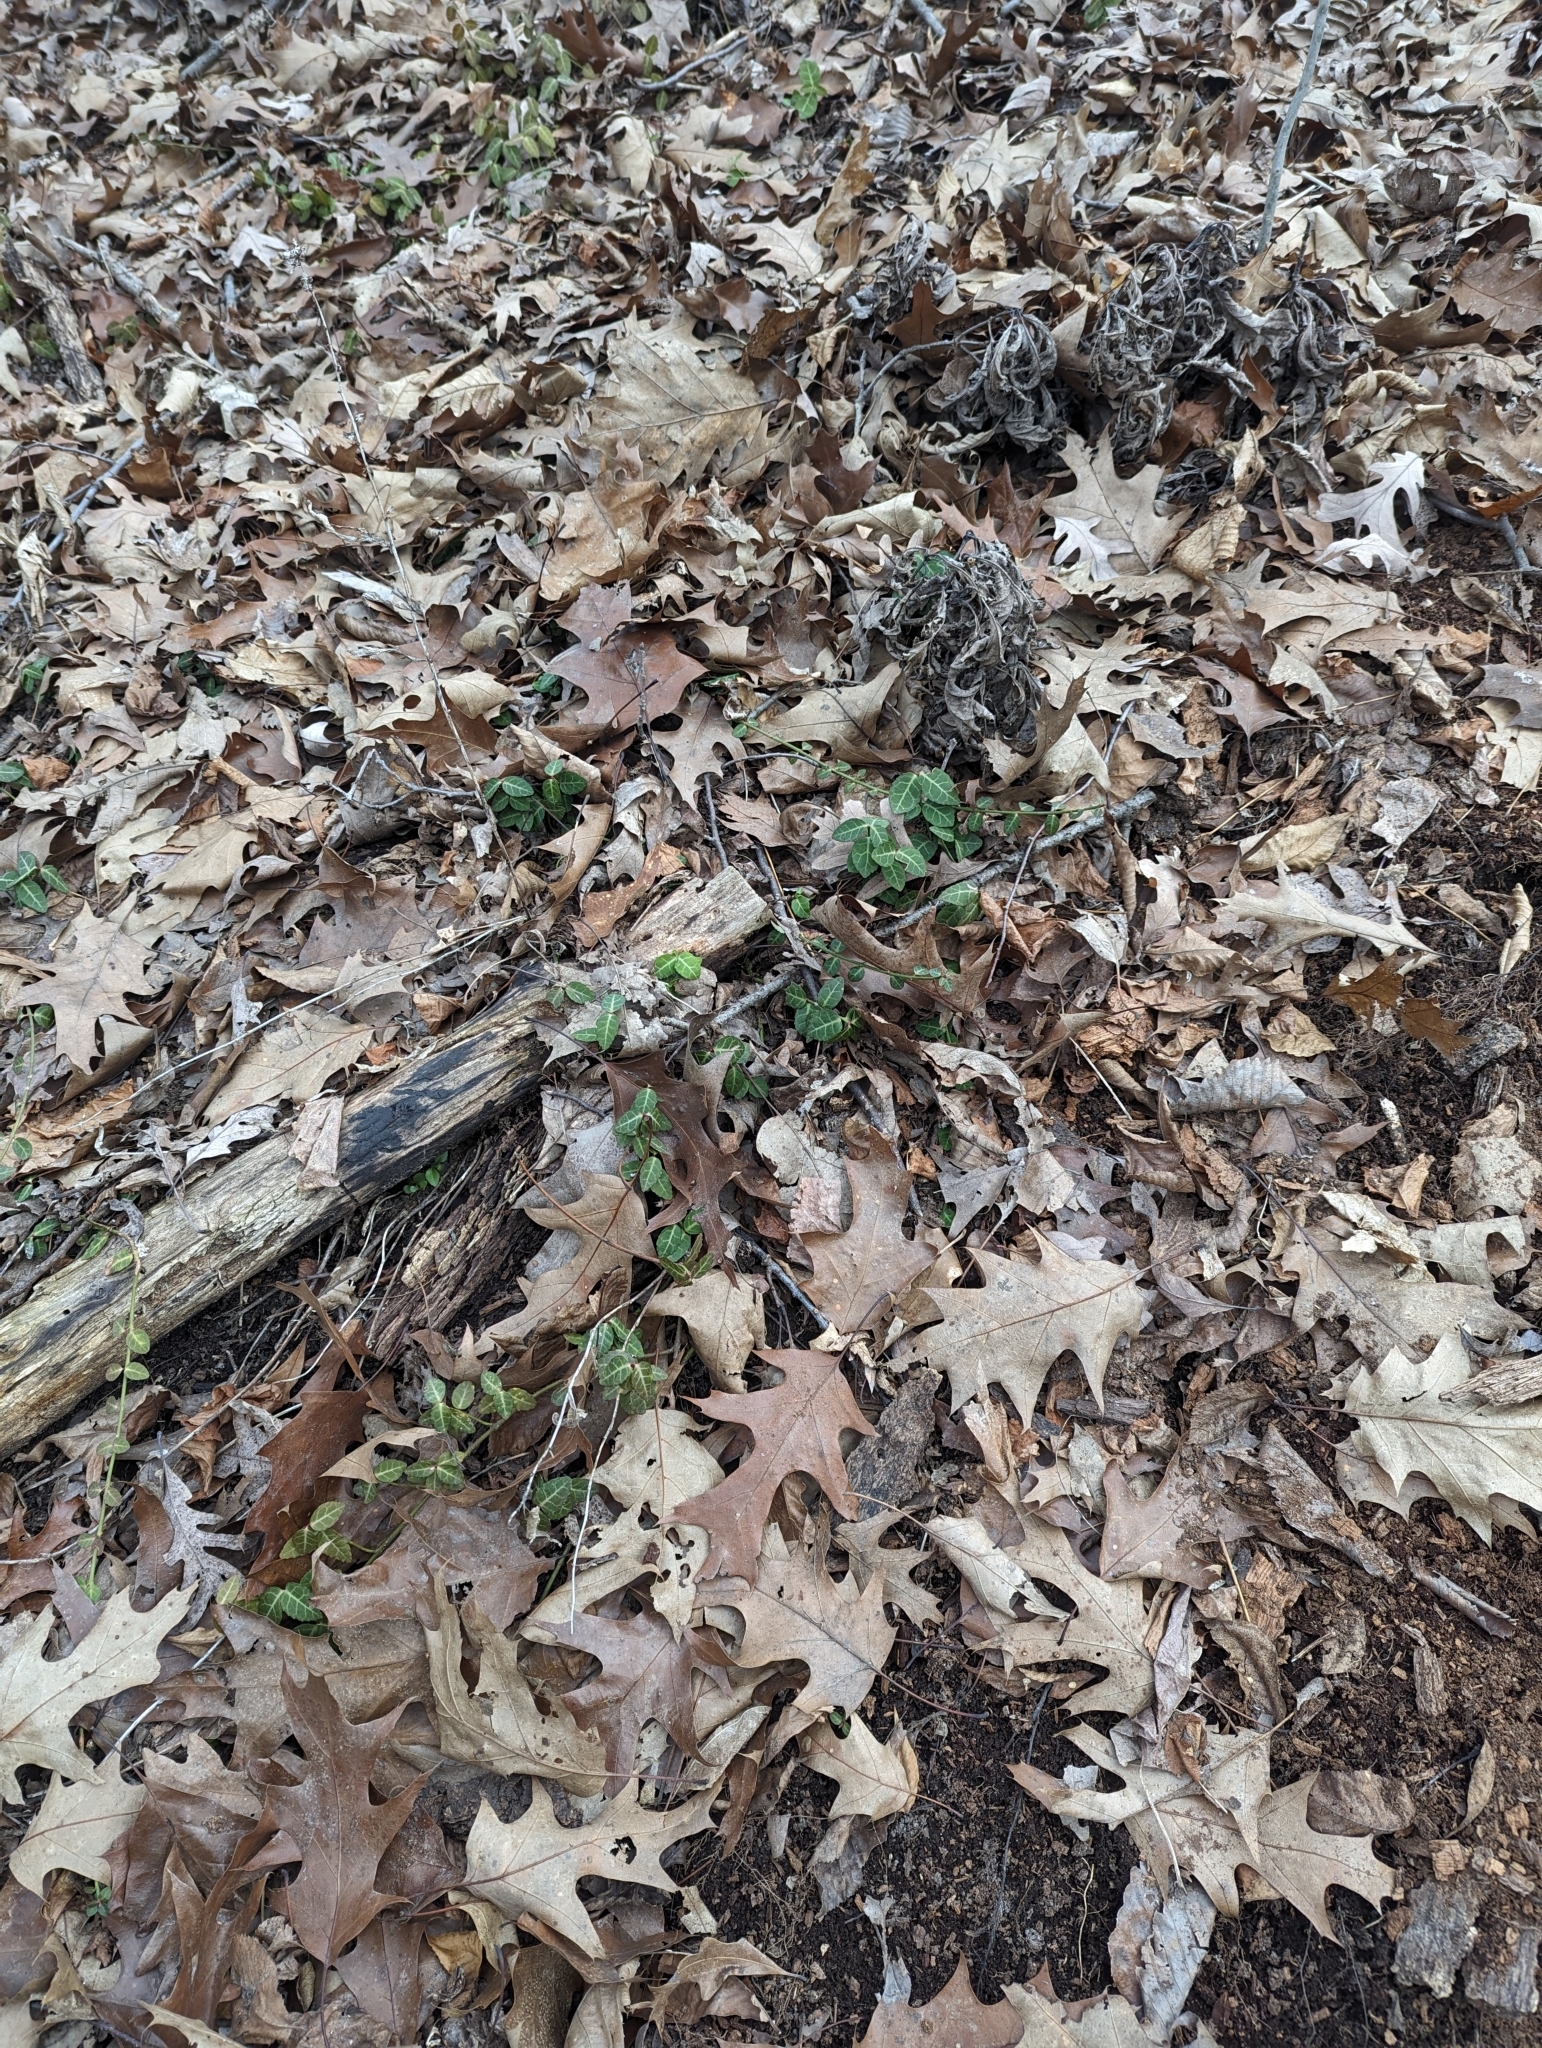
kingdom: Plantae
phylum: Tracheophyta
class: Magnoliopsida
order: Celastrales
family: Celastraceae
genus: Euonymus
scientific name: Euonymus fortunei
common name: Climbing euonymus
